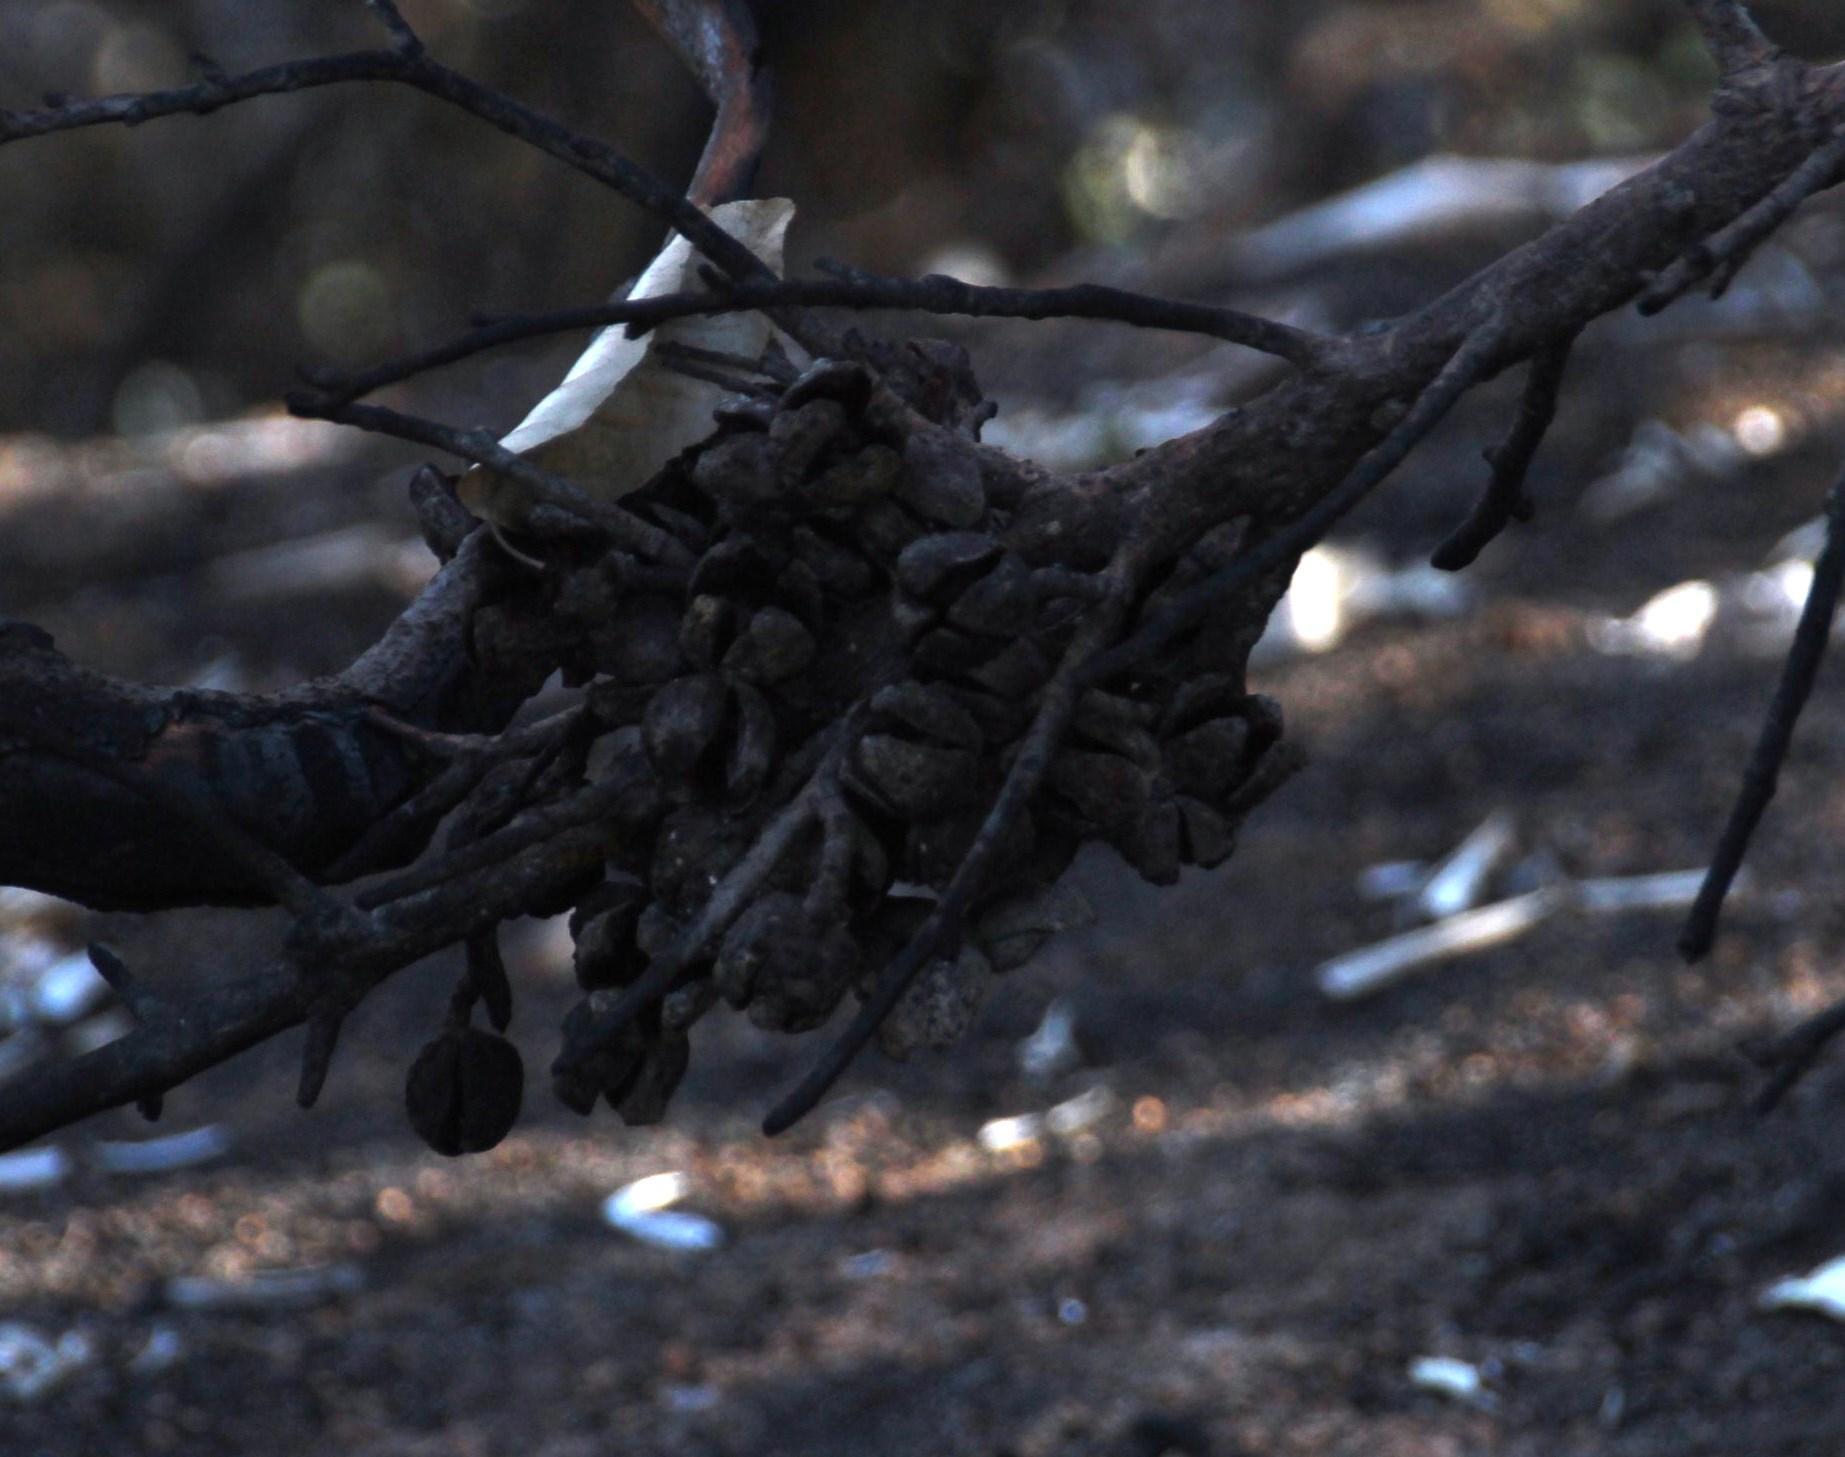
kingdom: Plantae
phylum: Tracheophyta
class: Pinopsida
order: Pinales
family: Cupressaceae
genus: Widdringtonia
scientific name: Widdringtonia nodiflora
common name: Cape cypress
